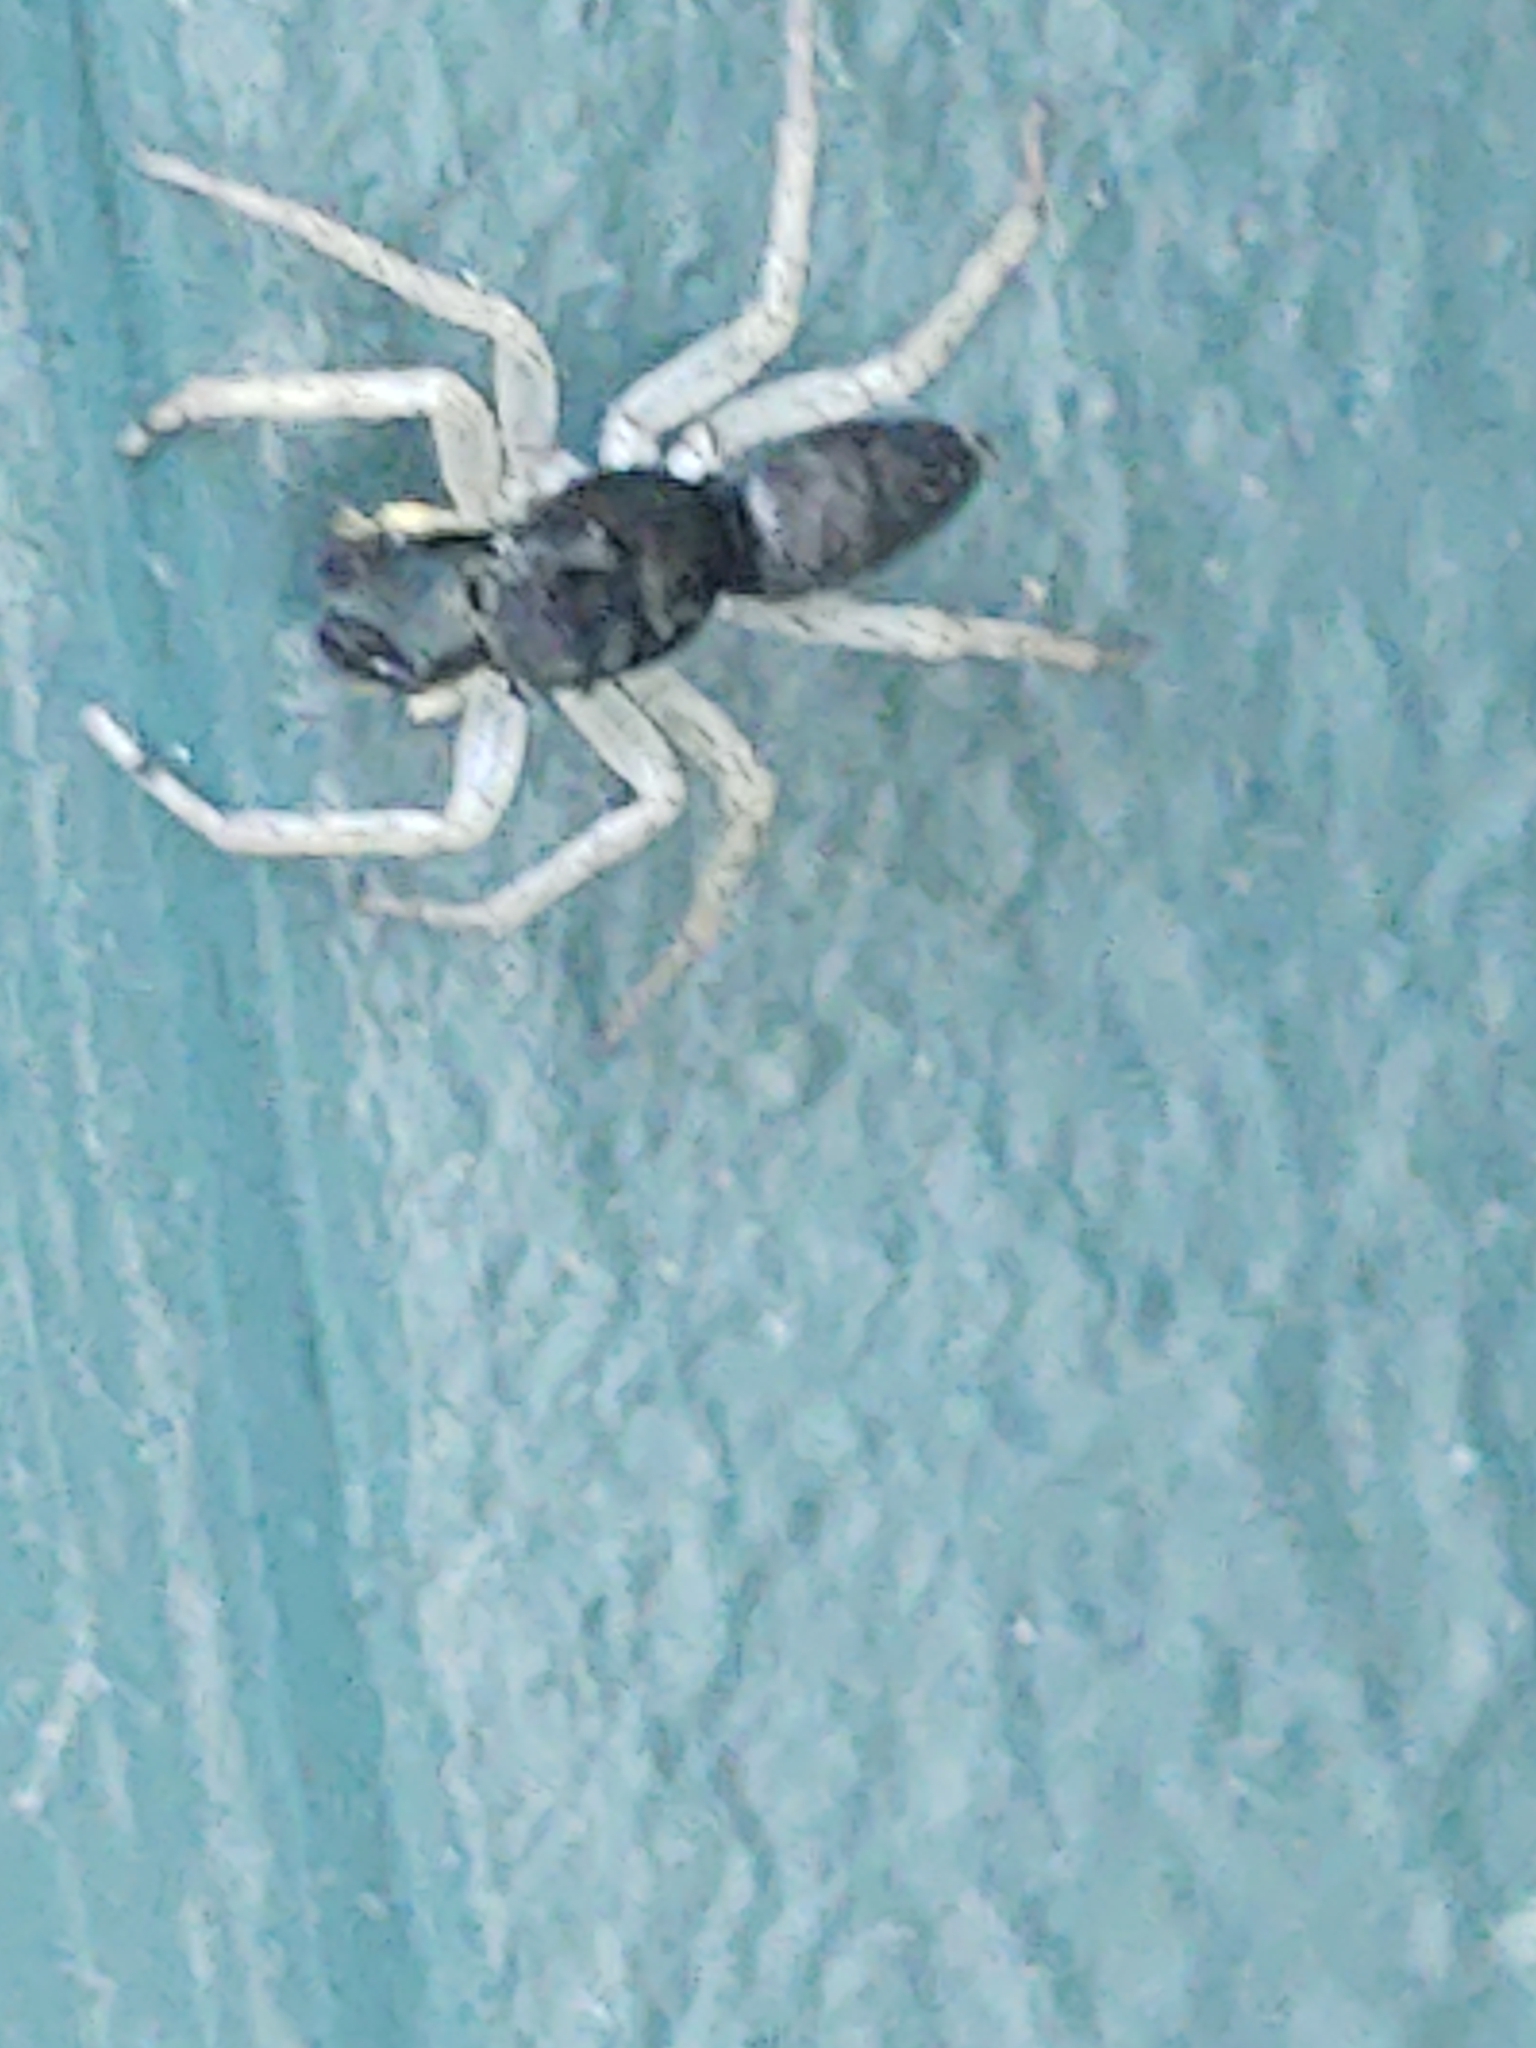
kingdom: Animalia
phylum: Arthropoda
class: Arachnida
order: Araneae
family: Salticidae
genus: Maevia
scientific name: Maevia inclemens
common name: Dimorphic jumper
